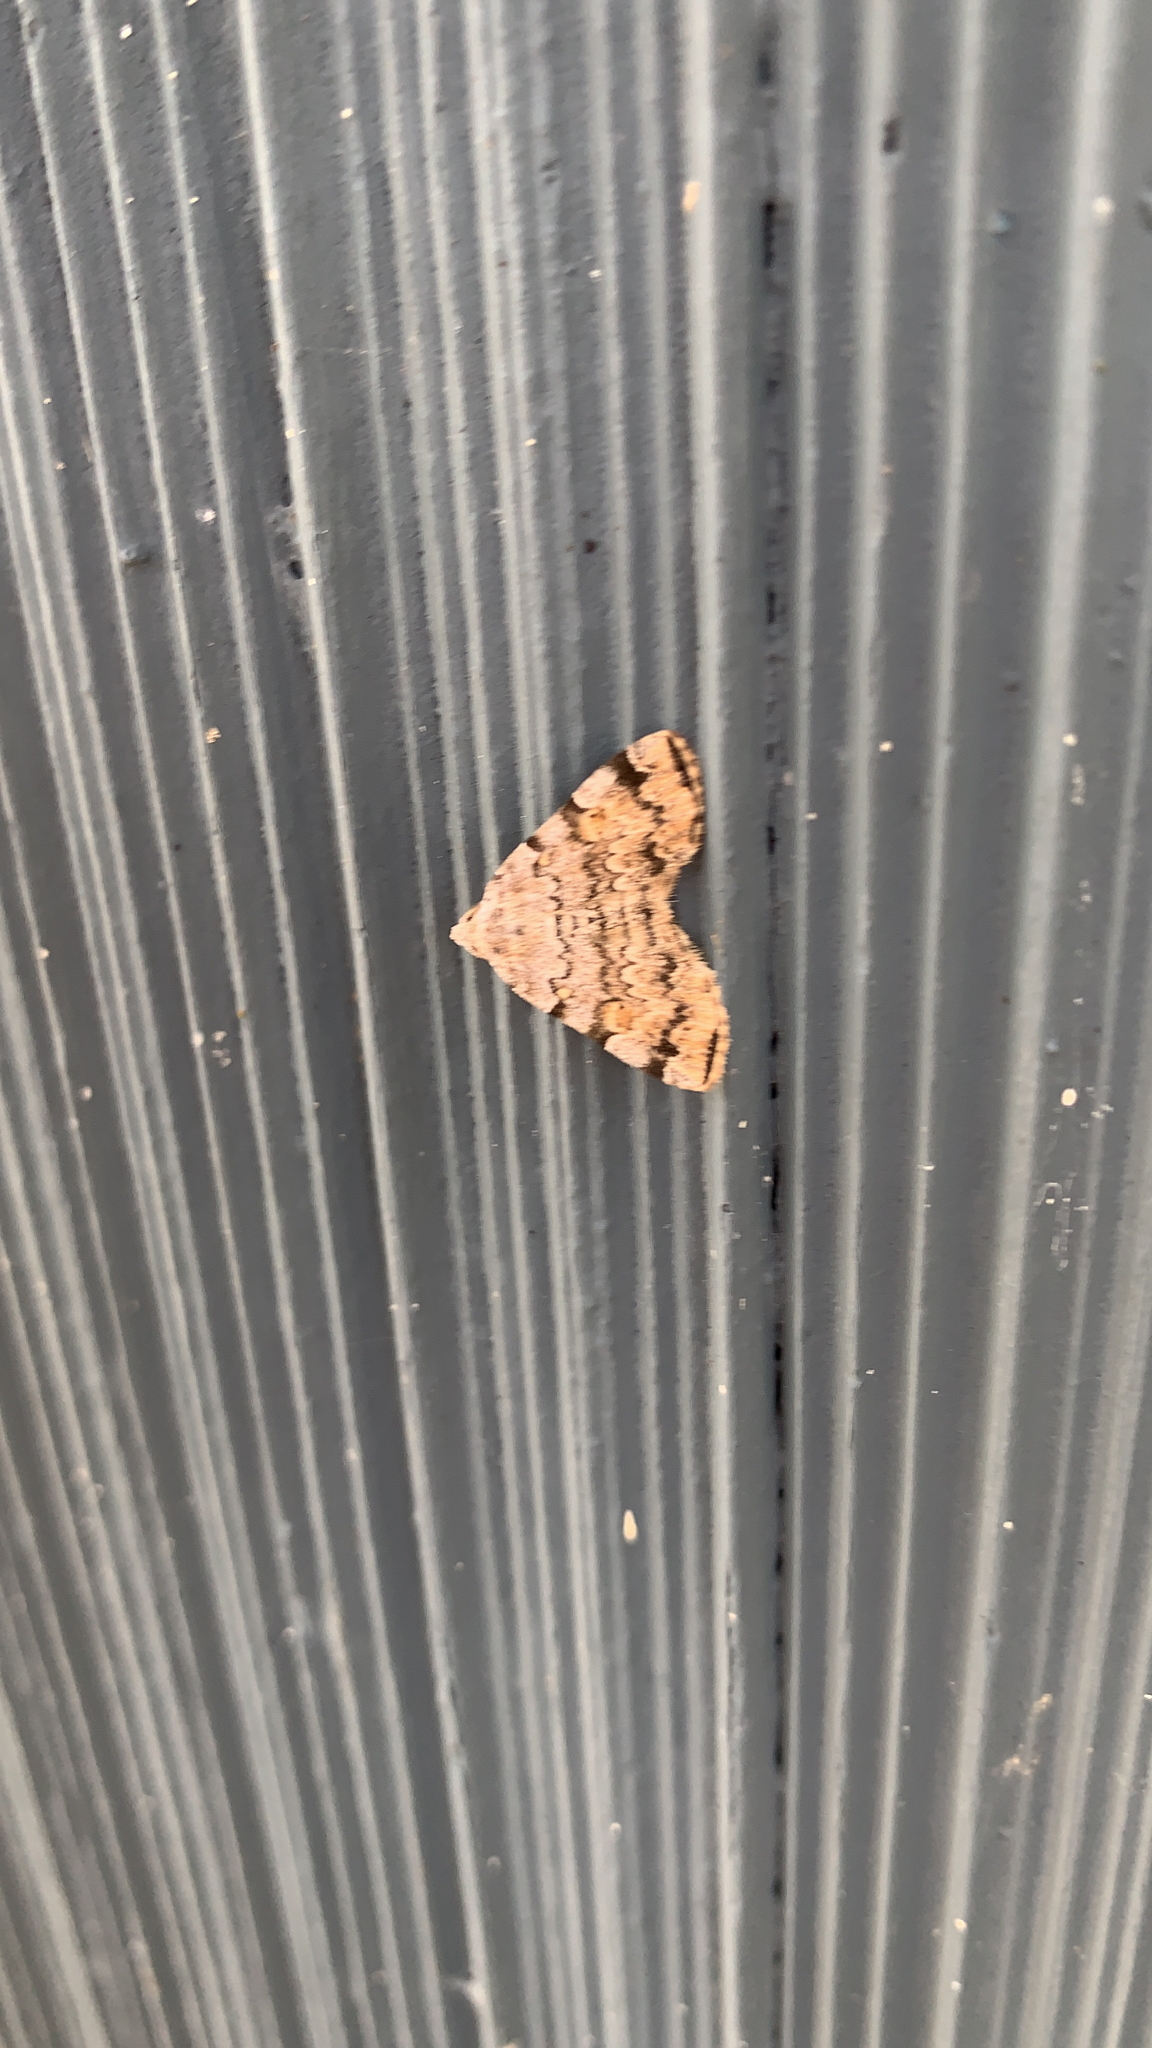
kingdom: Animalia
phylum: Arthropoda
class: Insecta
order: Lepidoptera
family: Erebidae
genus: Idia
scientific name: Idia americalis
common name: American idia moth
